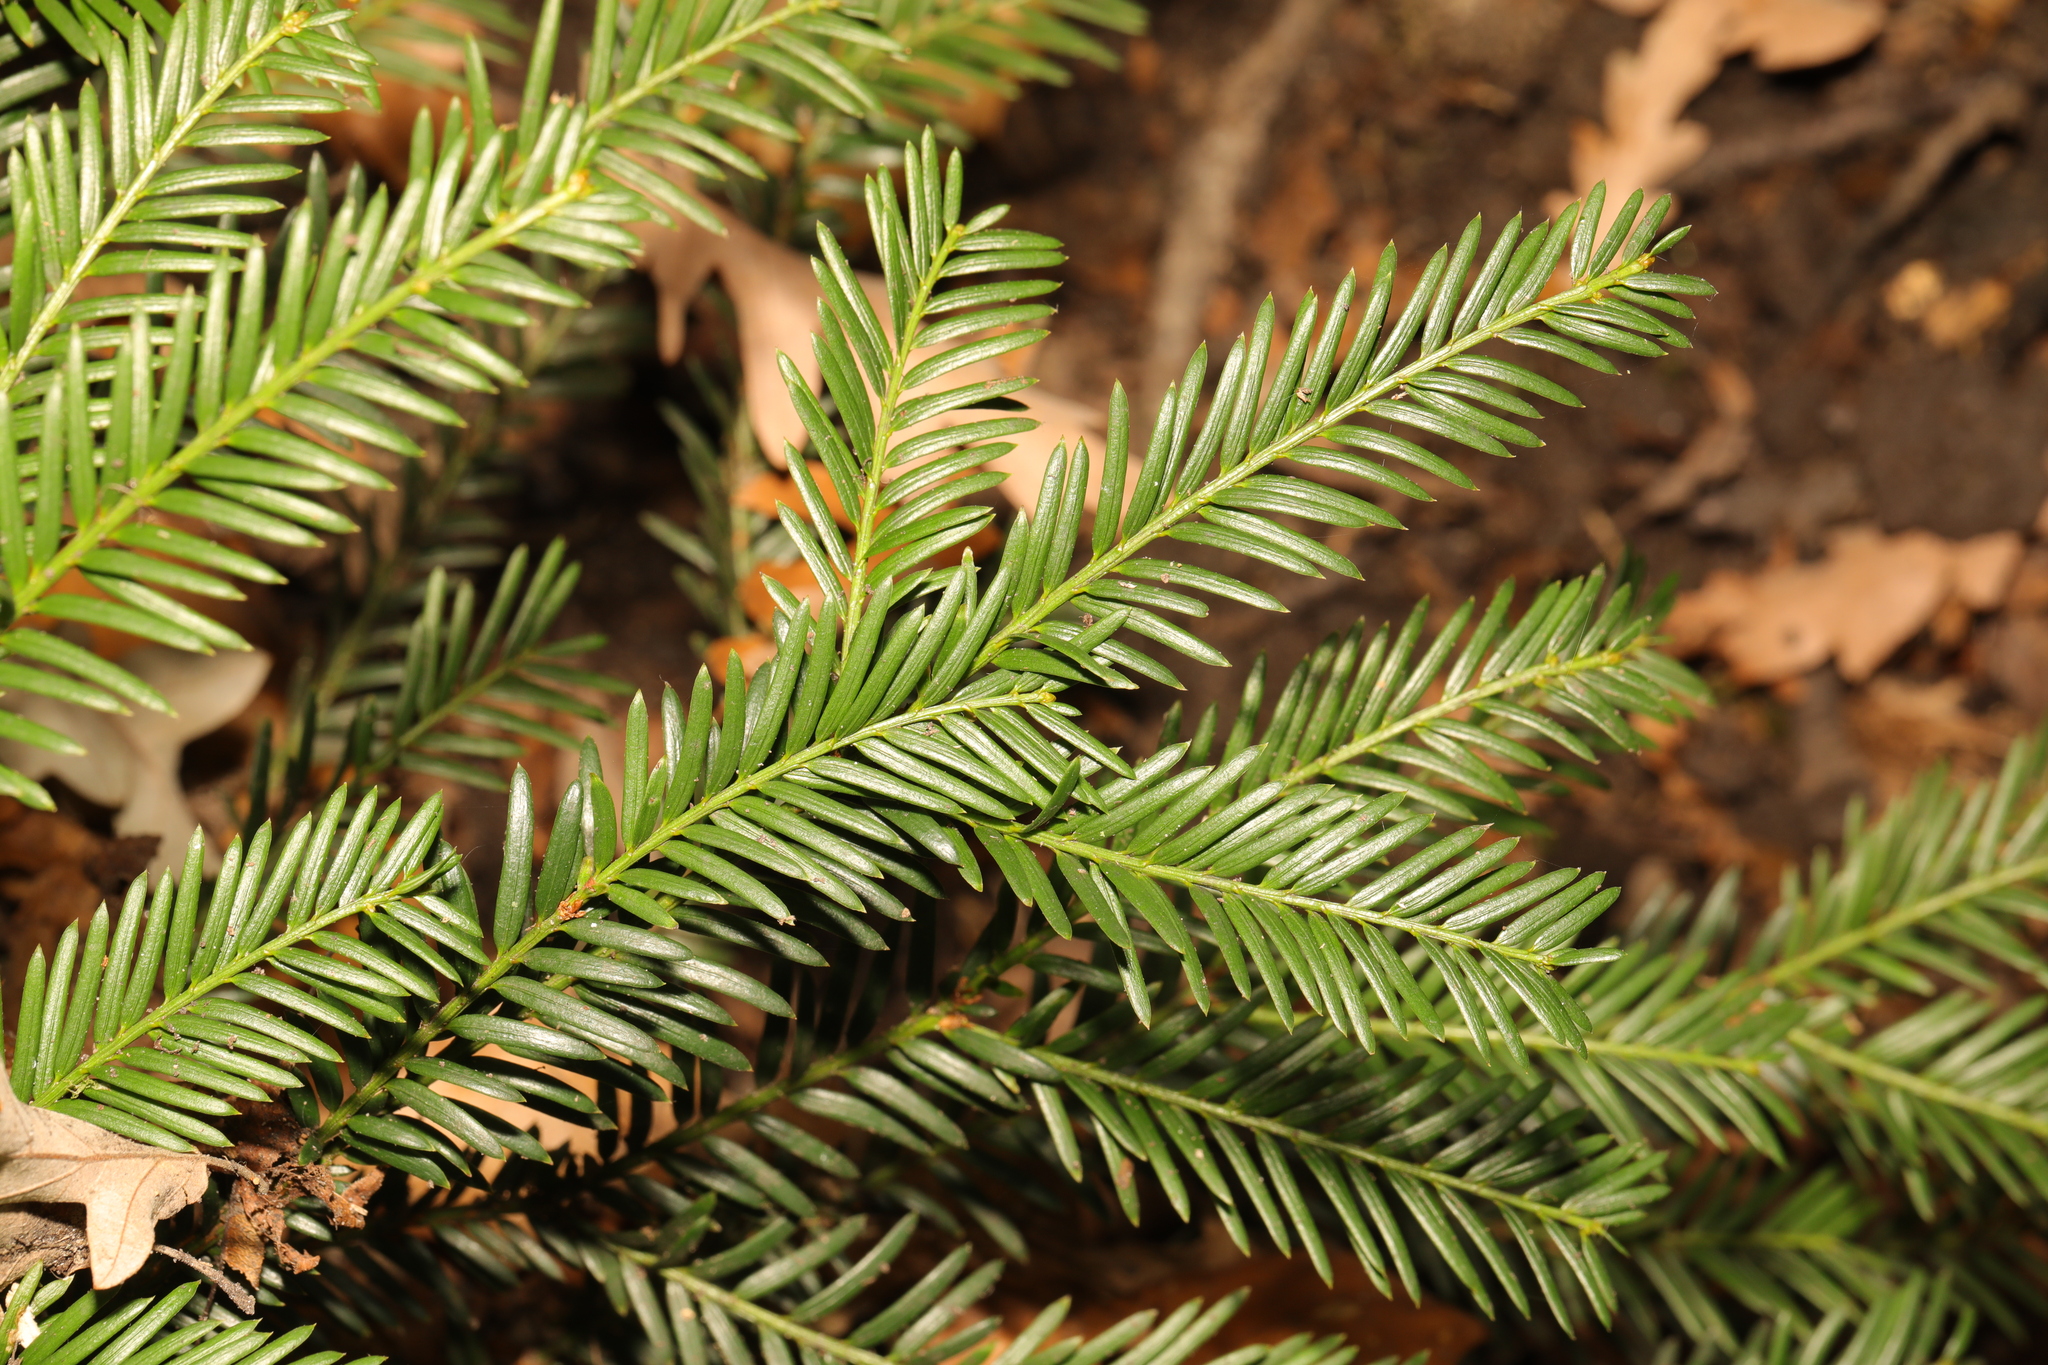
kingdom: Plantae
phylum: Tracheophyta
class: Pinopsida
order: Pinales
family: Taxaceae
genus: Taxus
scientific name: Taxus baccata
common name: Yew
